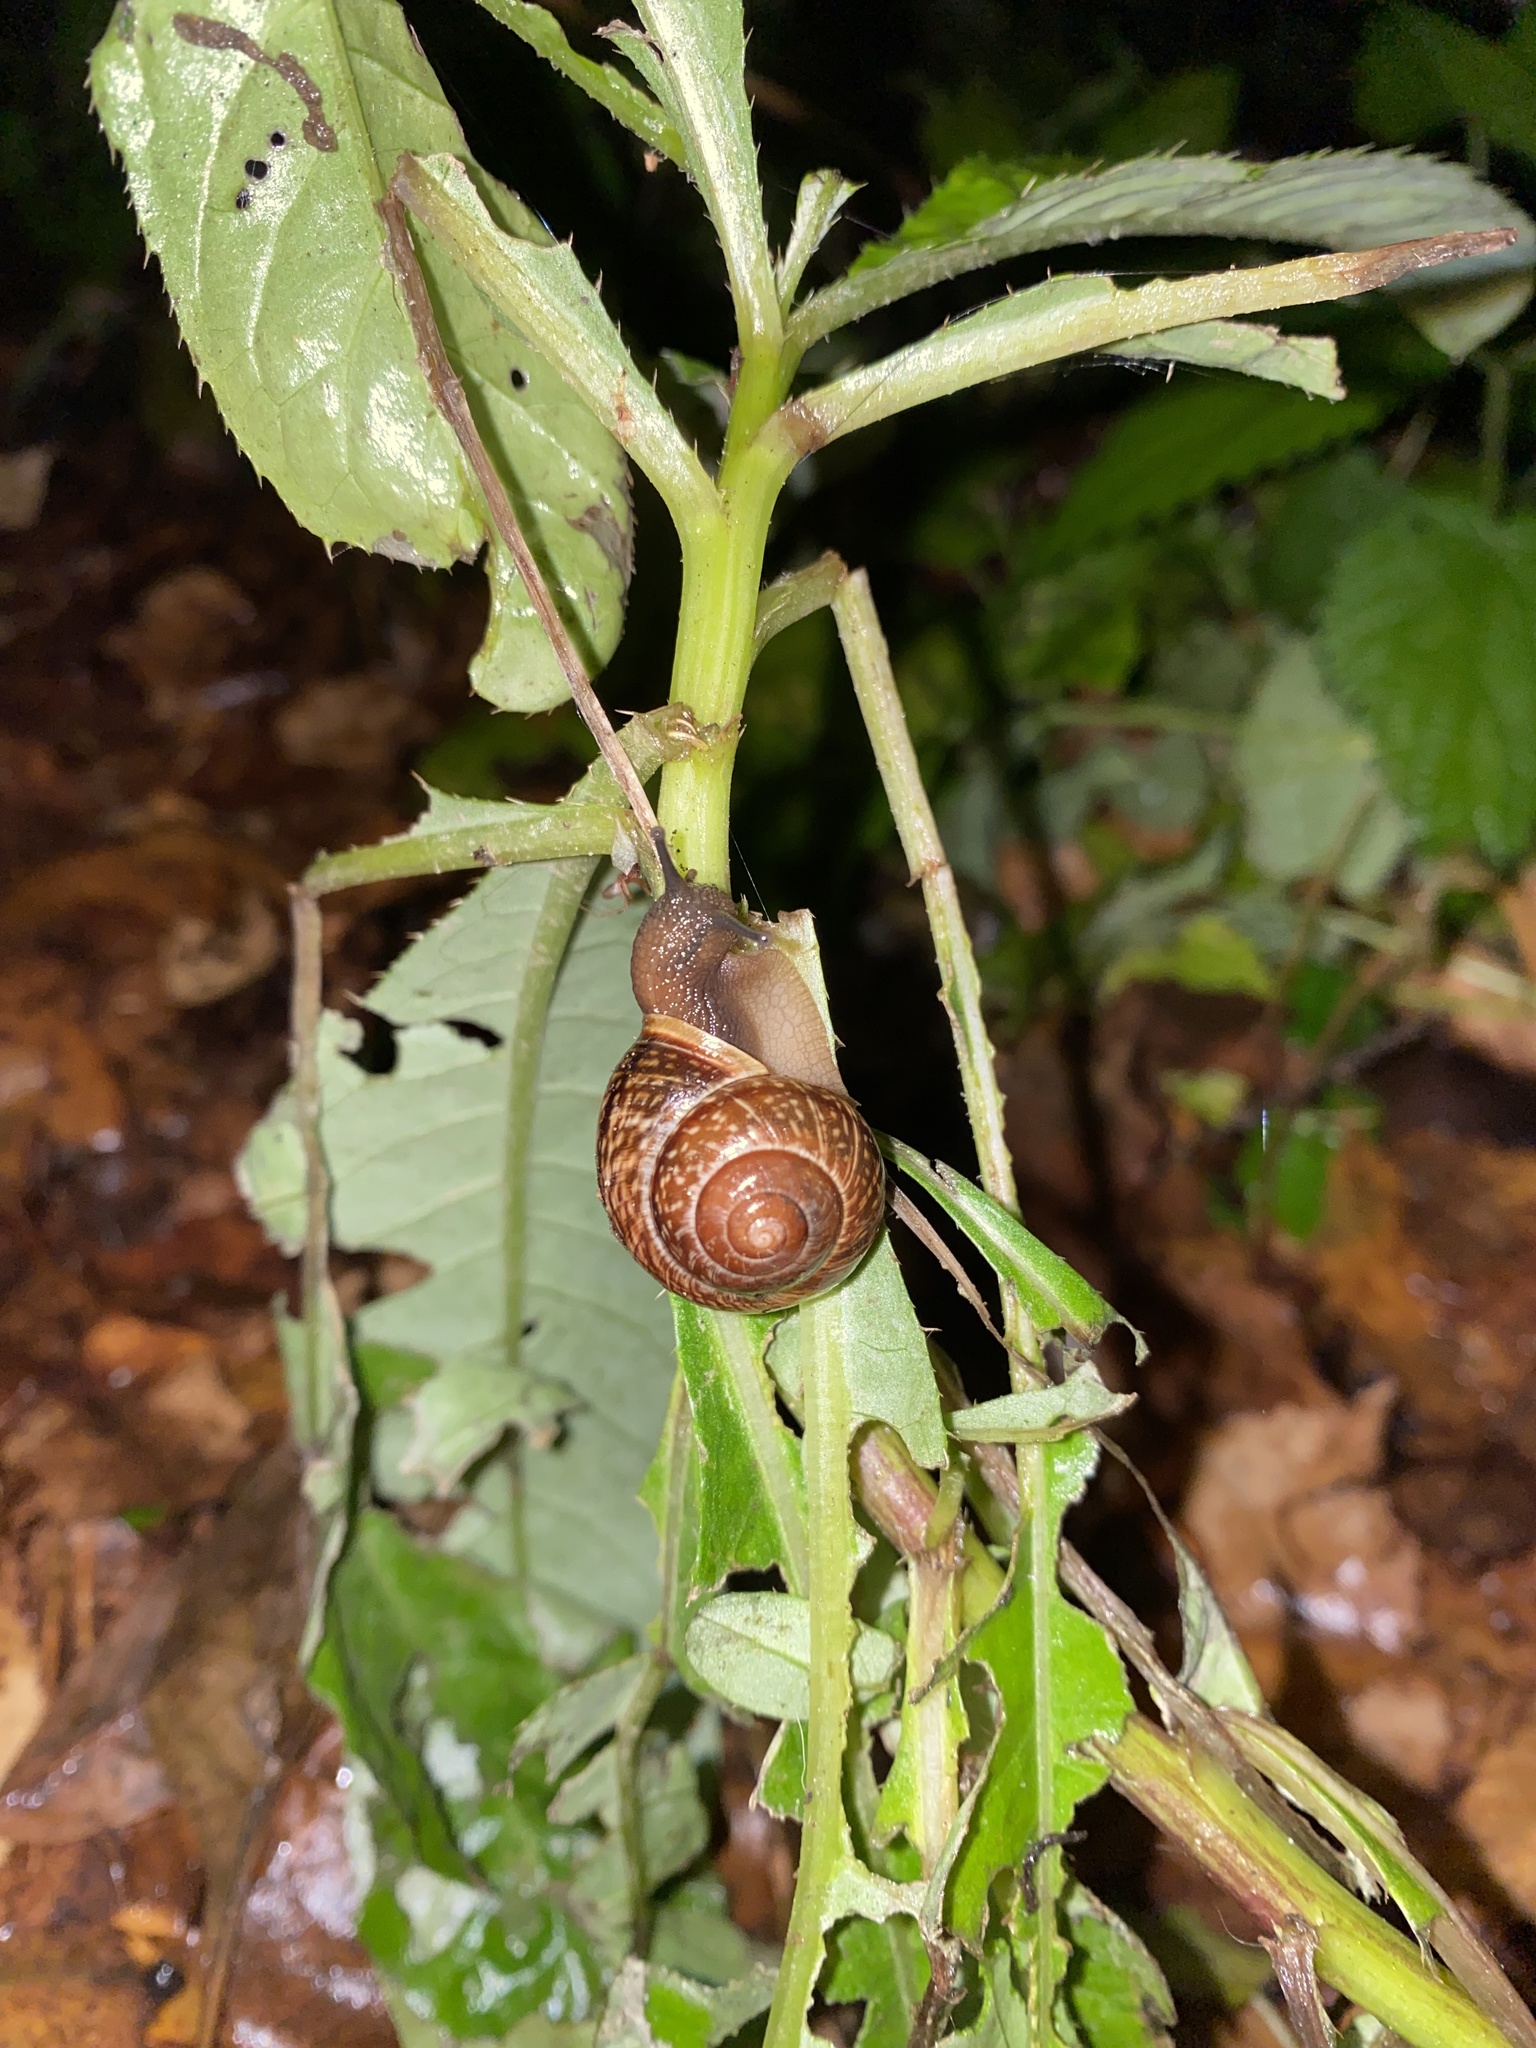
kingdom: Animalia
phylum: Mollusca
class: Gastropoda
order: Stylommatophora
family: Helicidae
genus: Arianta
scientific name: Arianta arbustorum
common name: Copse snail
